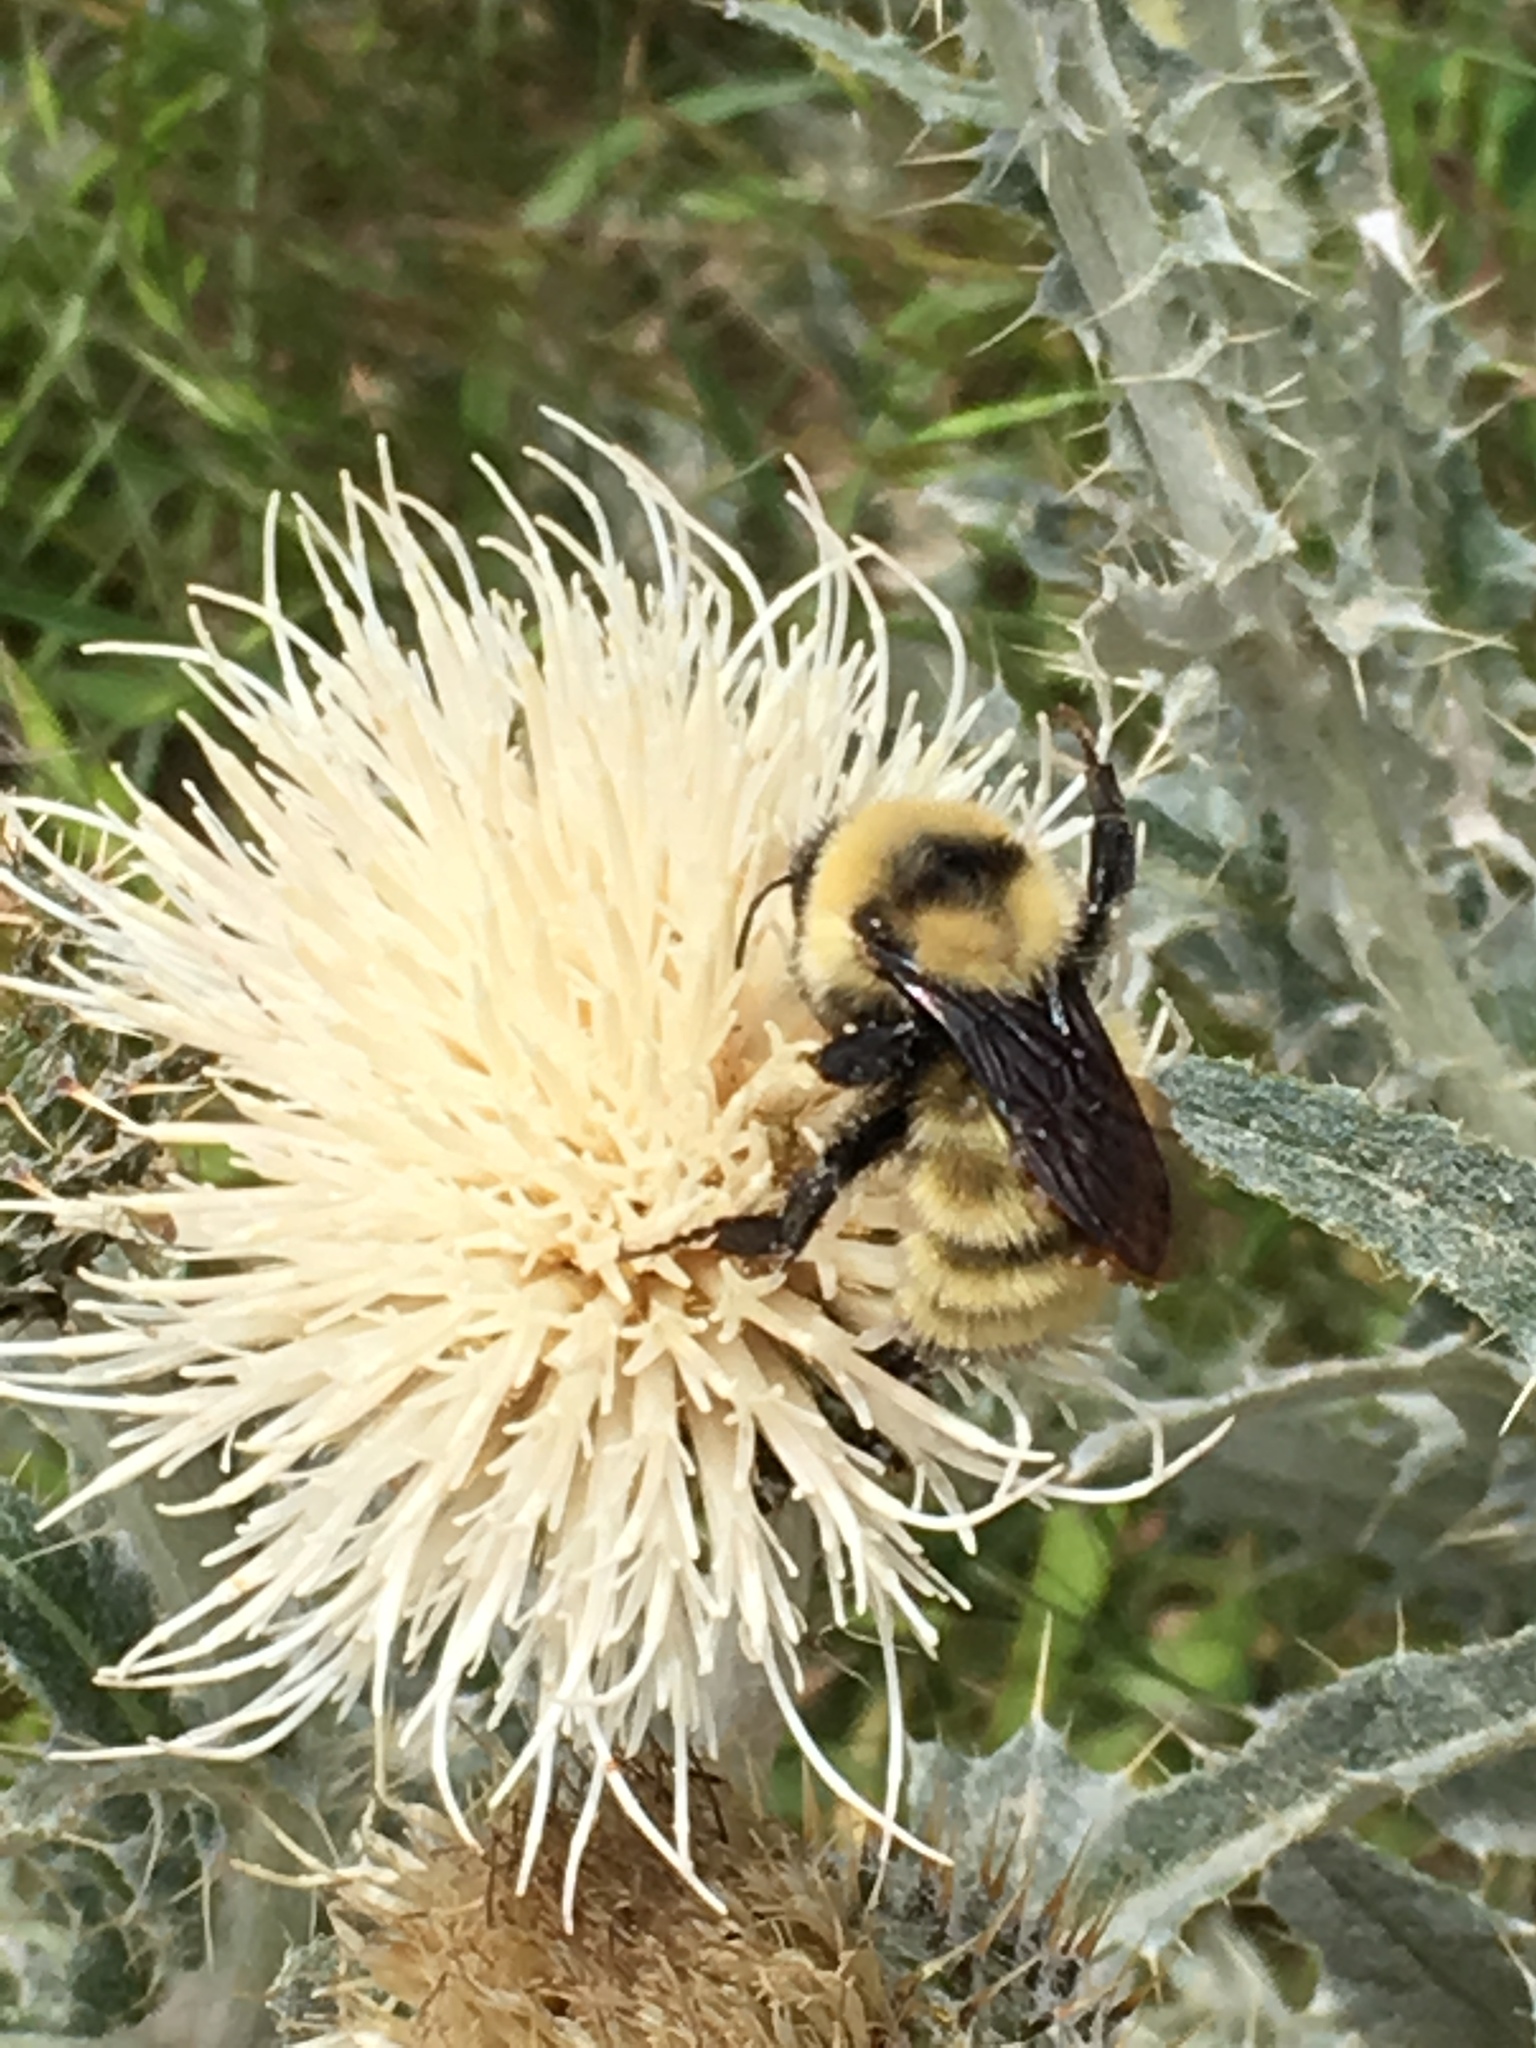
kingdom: Animalia
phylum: Arthropoda
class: Insecta
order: Hymenoptera
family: Apidae
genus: Bombus
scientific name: Bombus fervidus
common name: Yellow bumble bee
